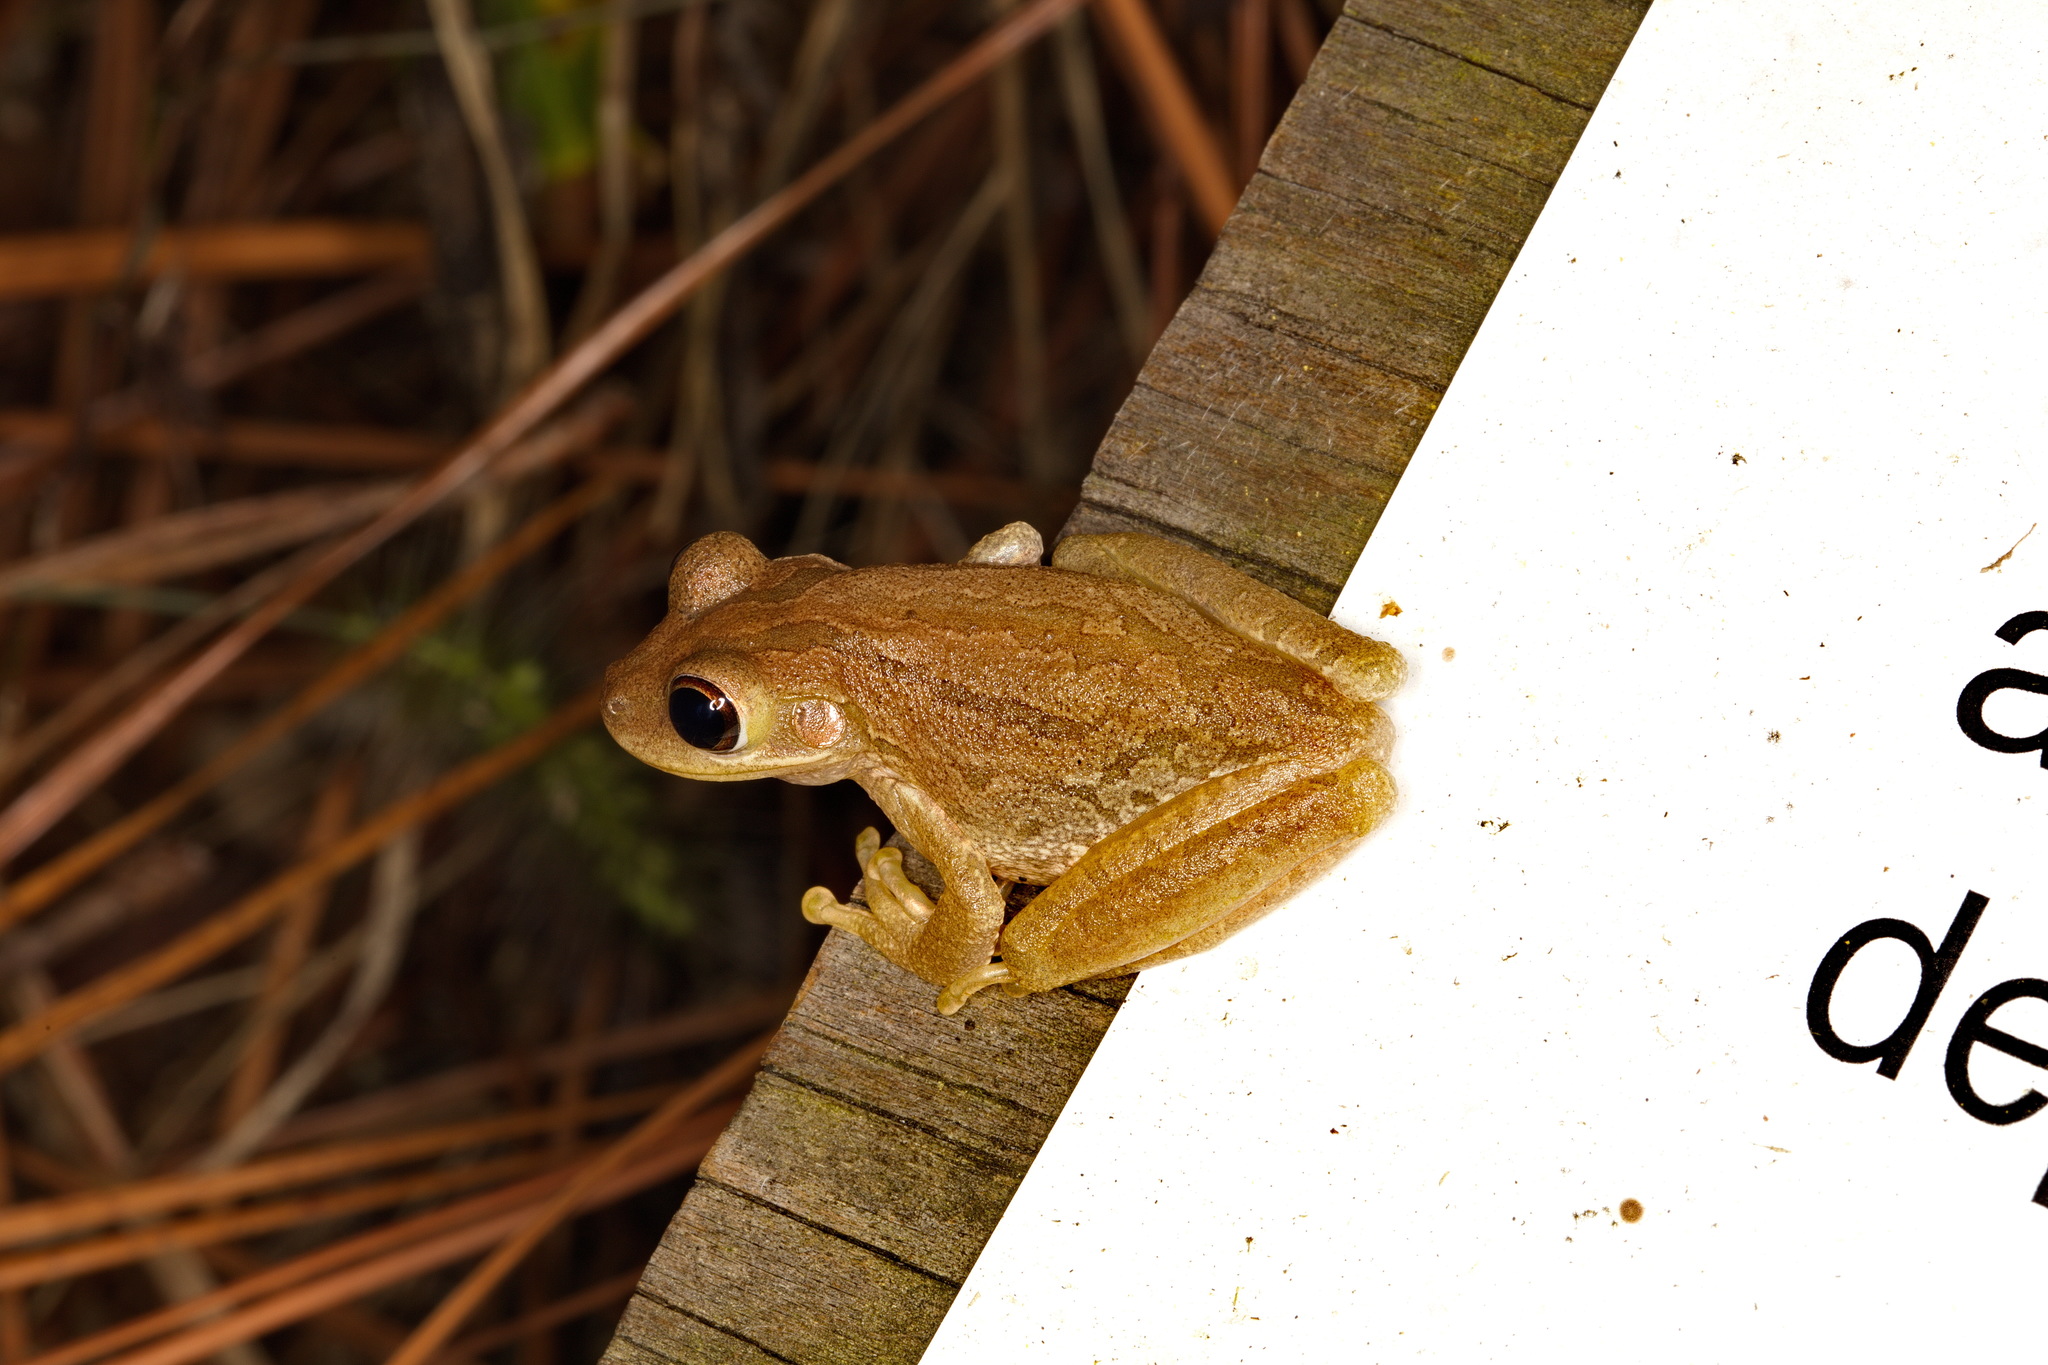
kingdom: Animalia
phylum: Chordata
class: Amphibia
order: Anura
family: Hylidae
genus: Osteopilus
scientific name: Osteopilus septentrionalis
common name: Cuban treefrog
